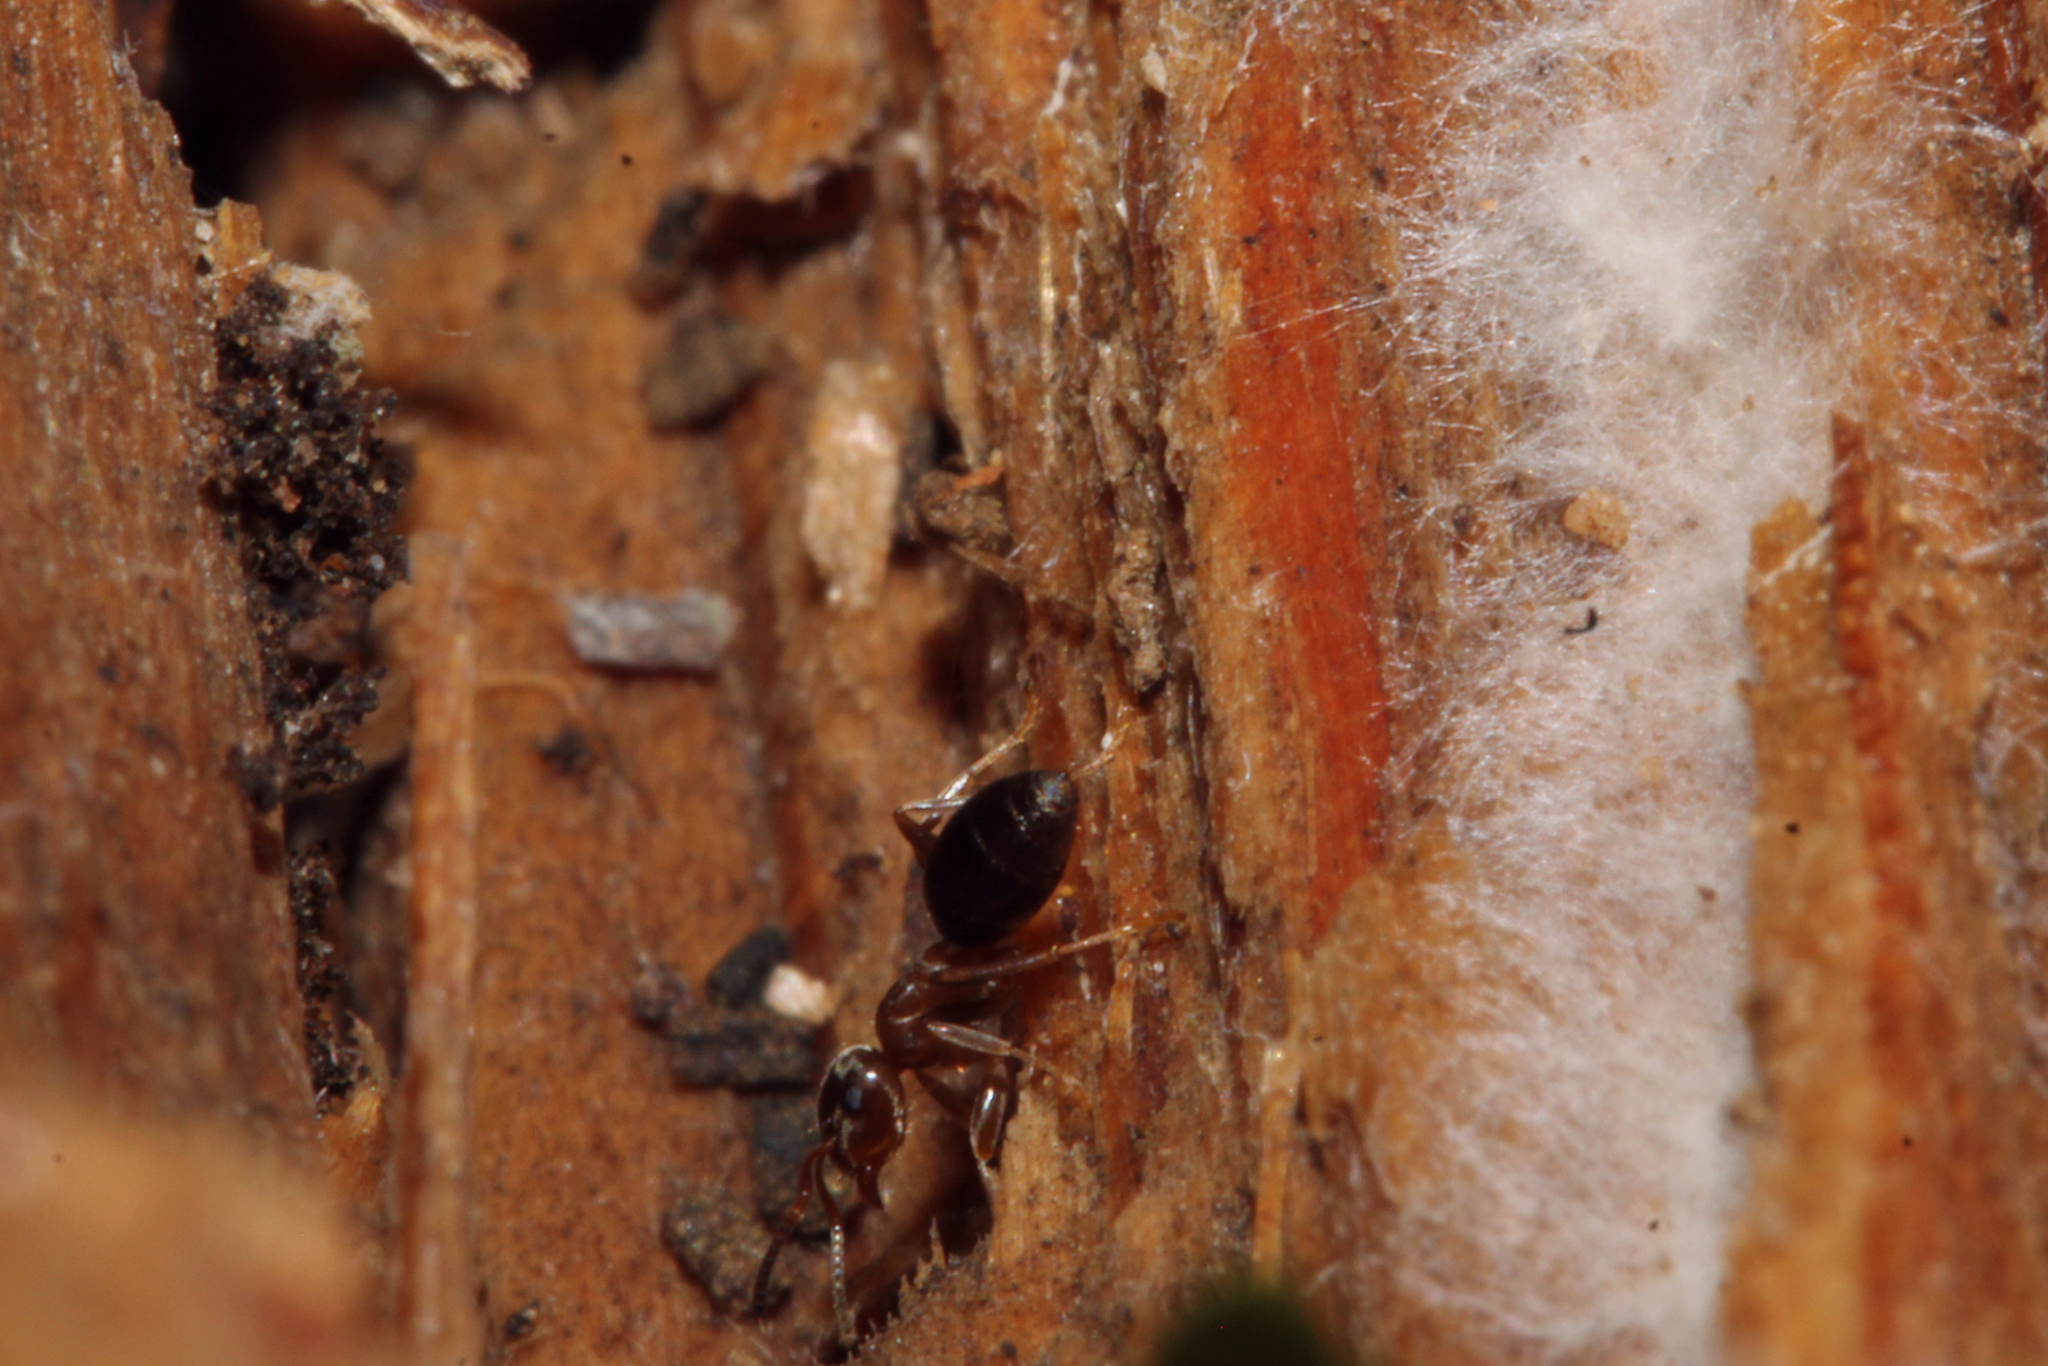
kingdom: Animalia
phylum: Arthropoda
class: Insecta
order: Hymenoptera
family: Formicidae
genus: Lasius
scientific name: Lasius brunneus
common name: Brown ant
